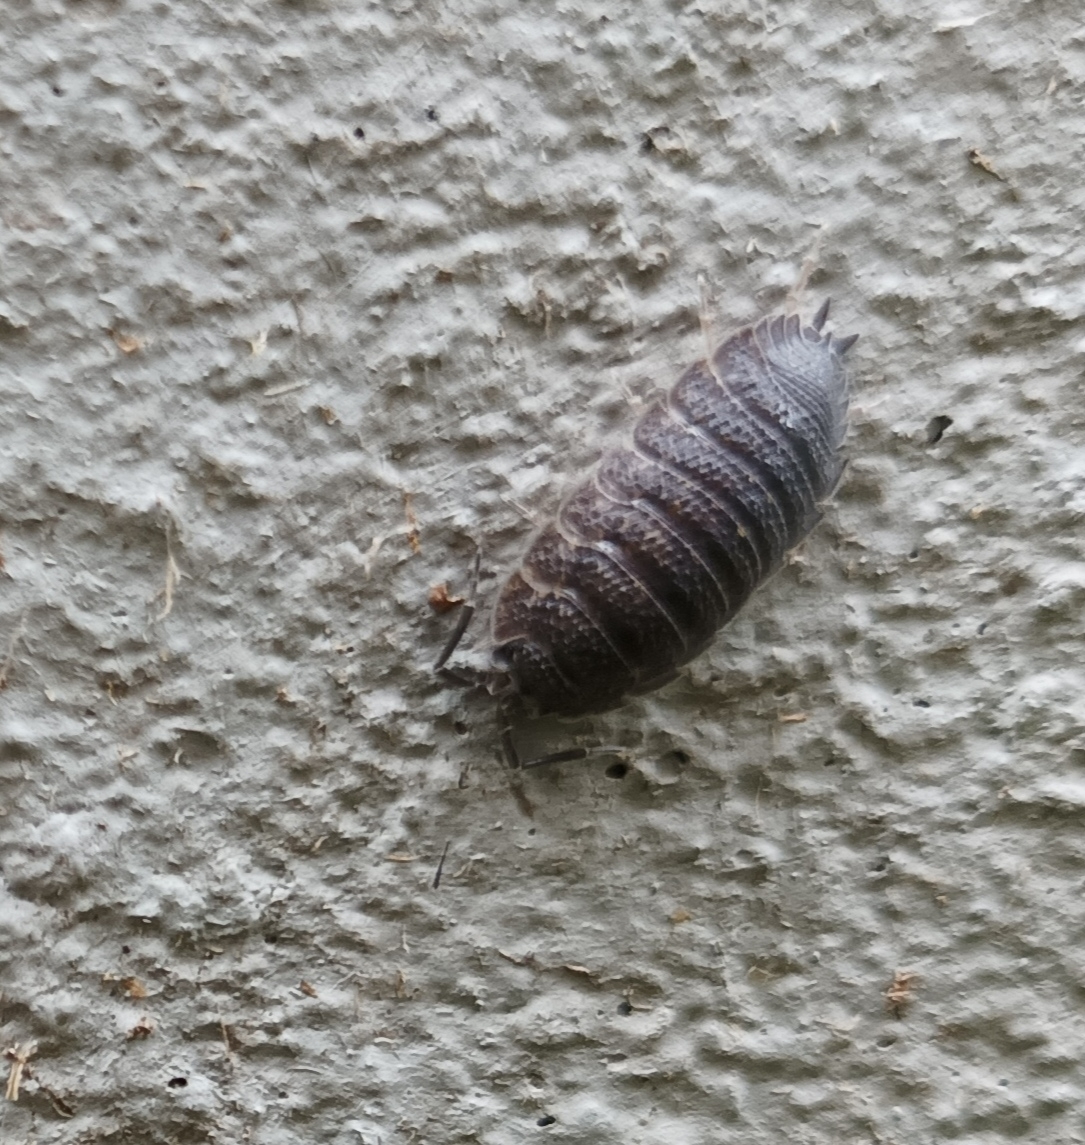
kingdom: Animalia
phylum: Arthropoda
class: Malacostraca
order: Isopoda
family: Porcellionidae
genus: Porcellio
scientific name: Porcellio scaber
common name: Common rough woodlouse
